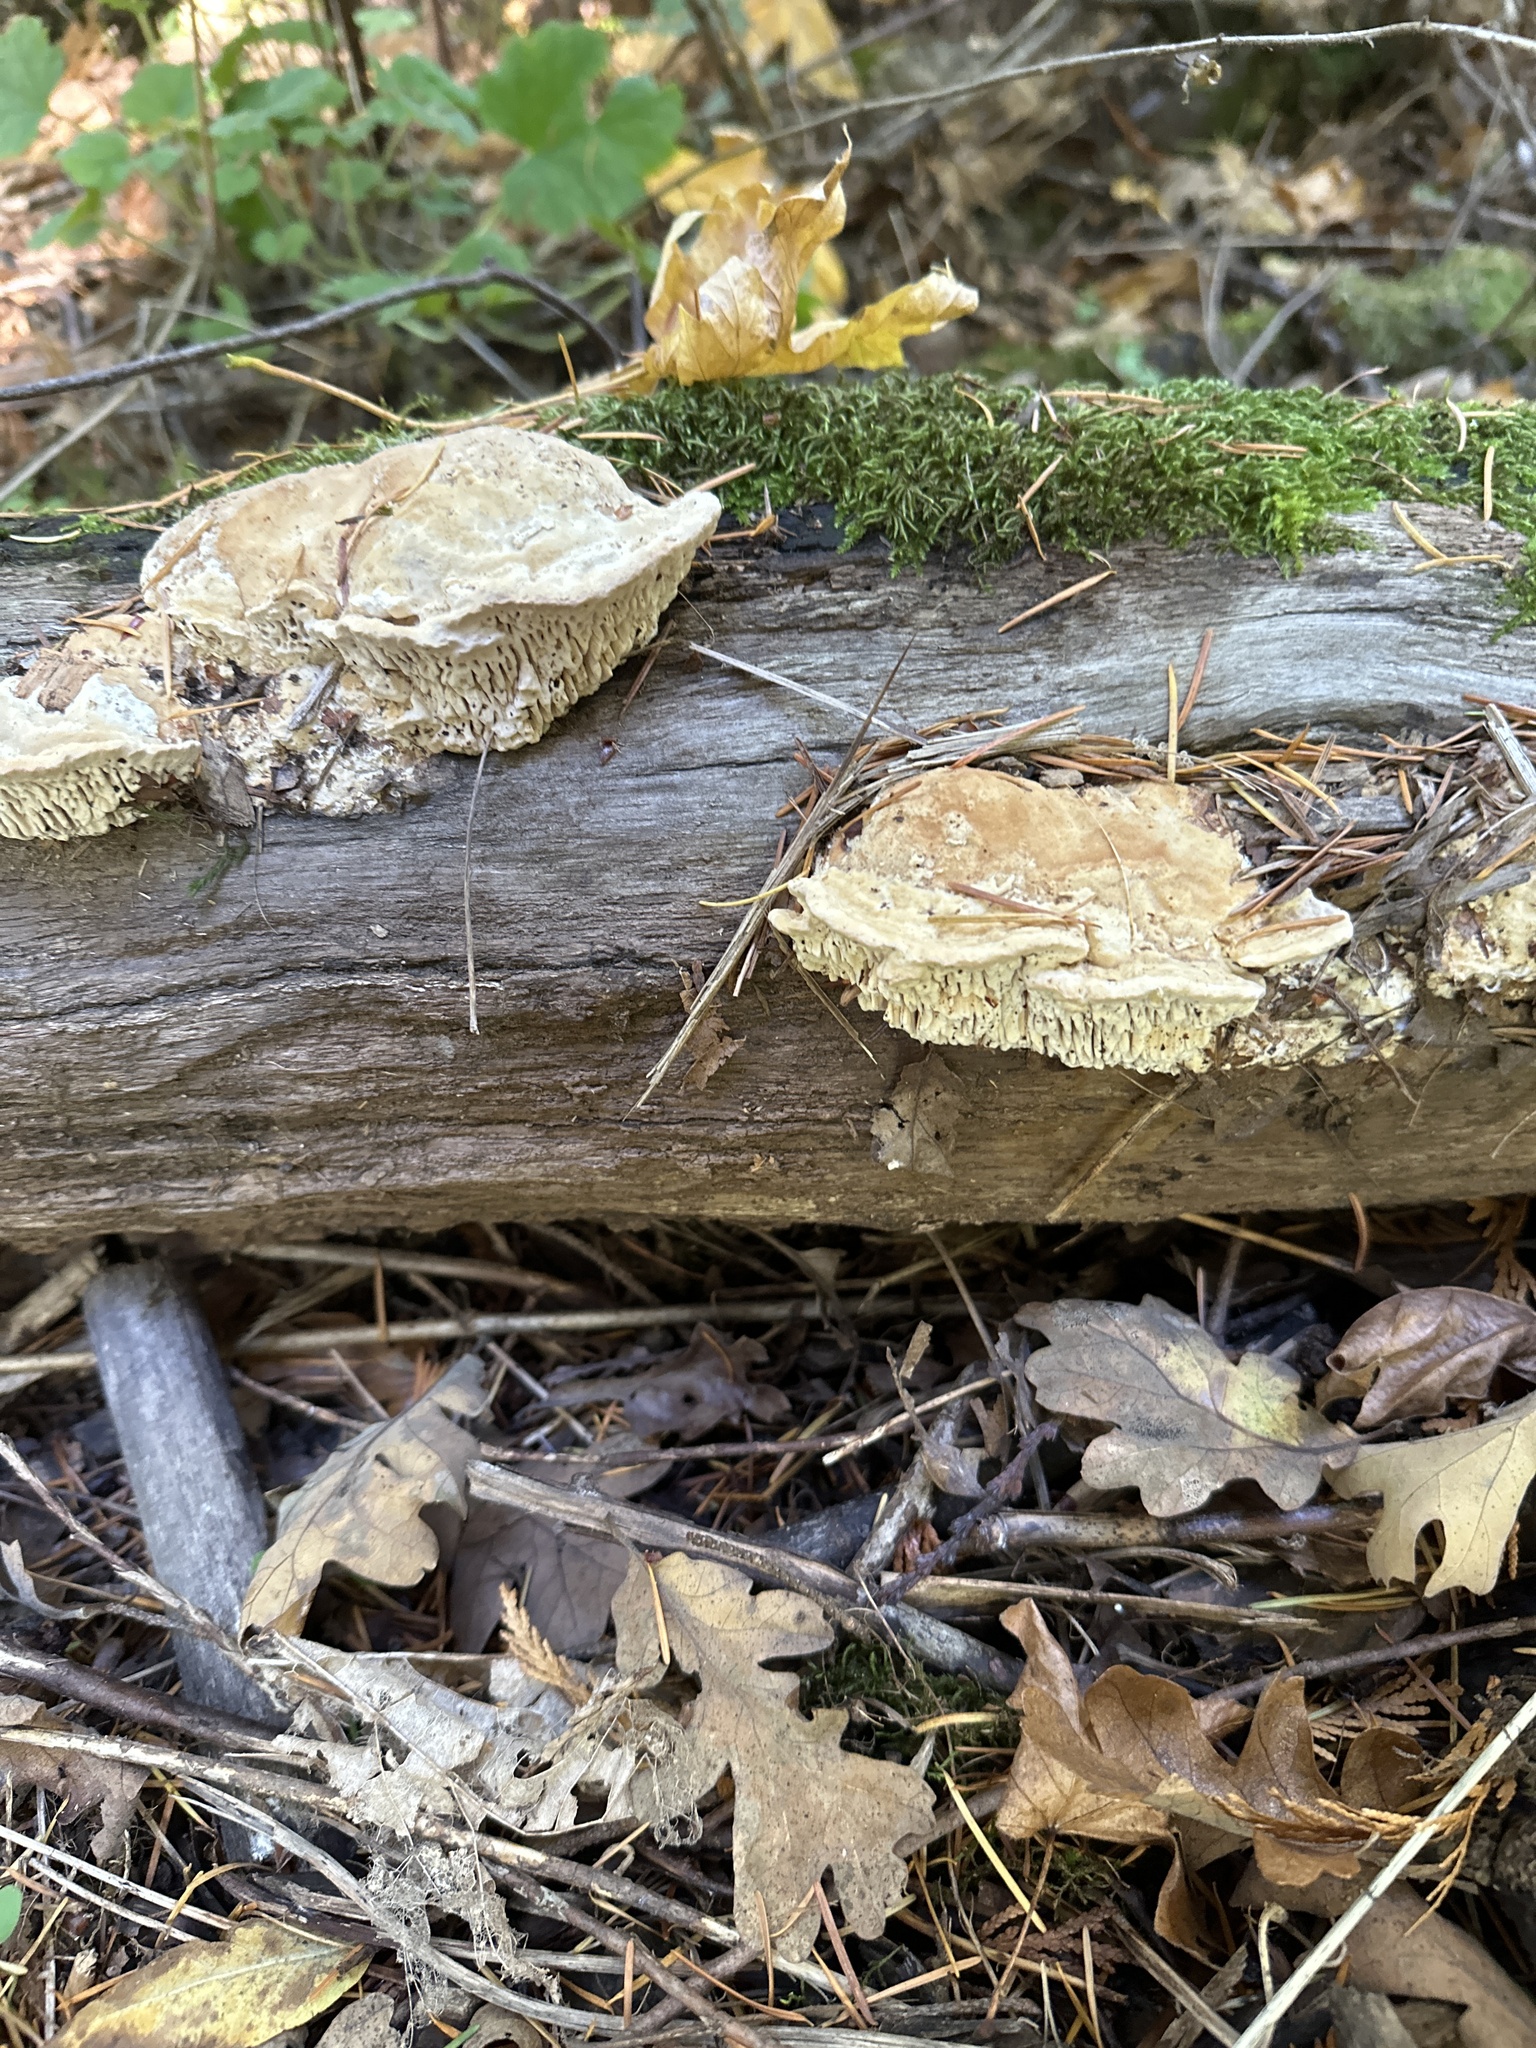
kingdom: Fungi
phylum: Basidiomycota
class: Agaricomycetes
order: Polyporales
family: Fomitopsidaceae
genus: Fomitopsis
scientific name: Fomitopsis
